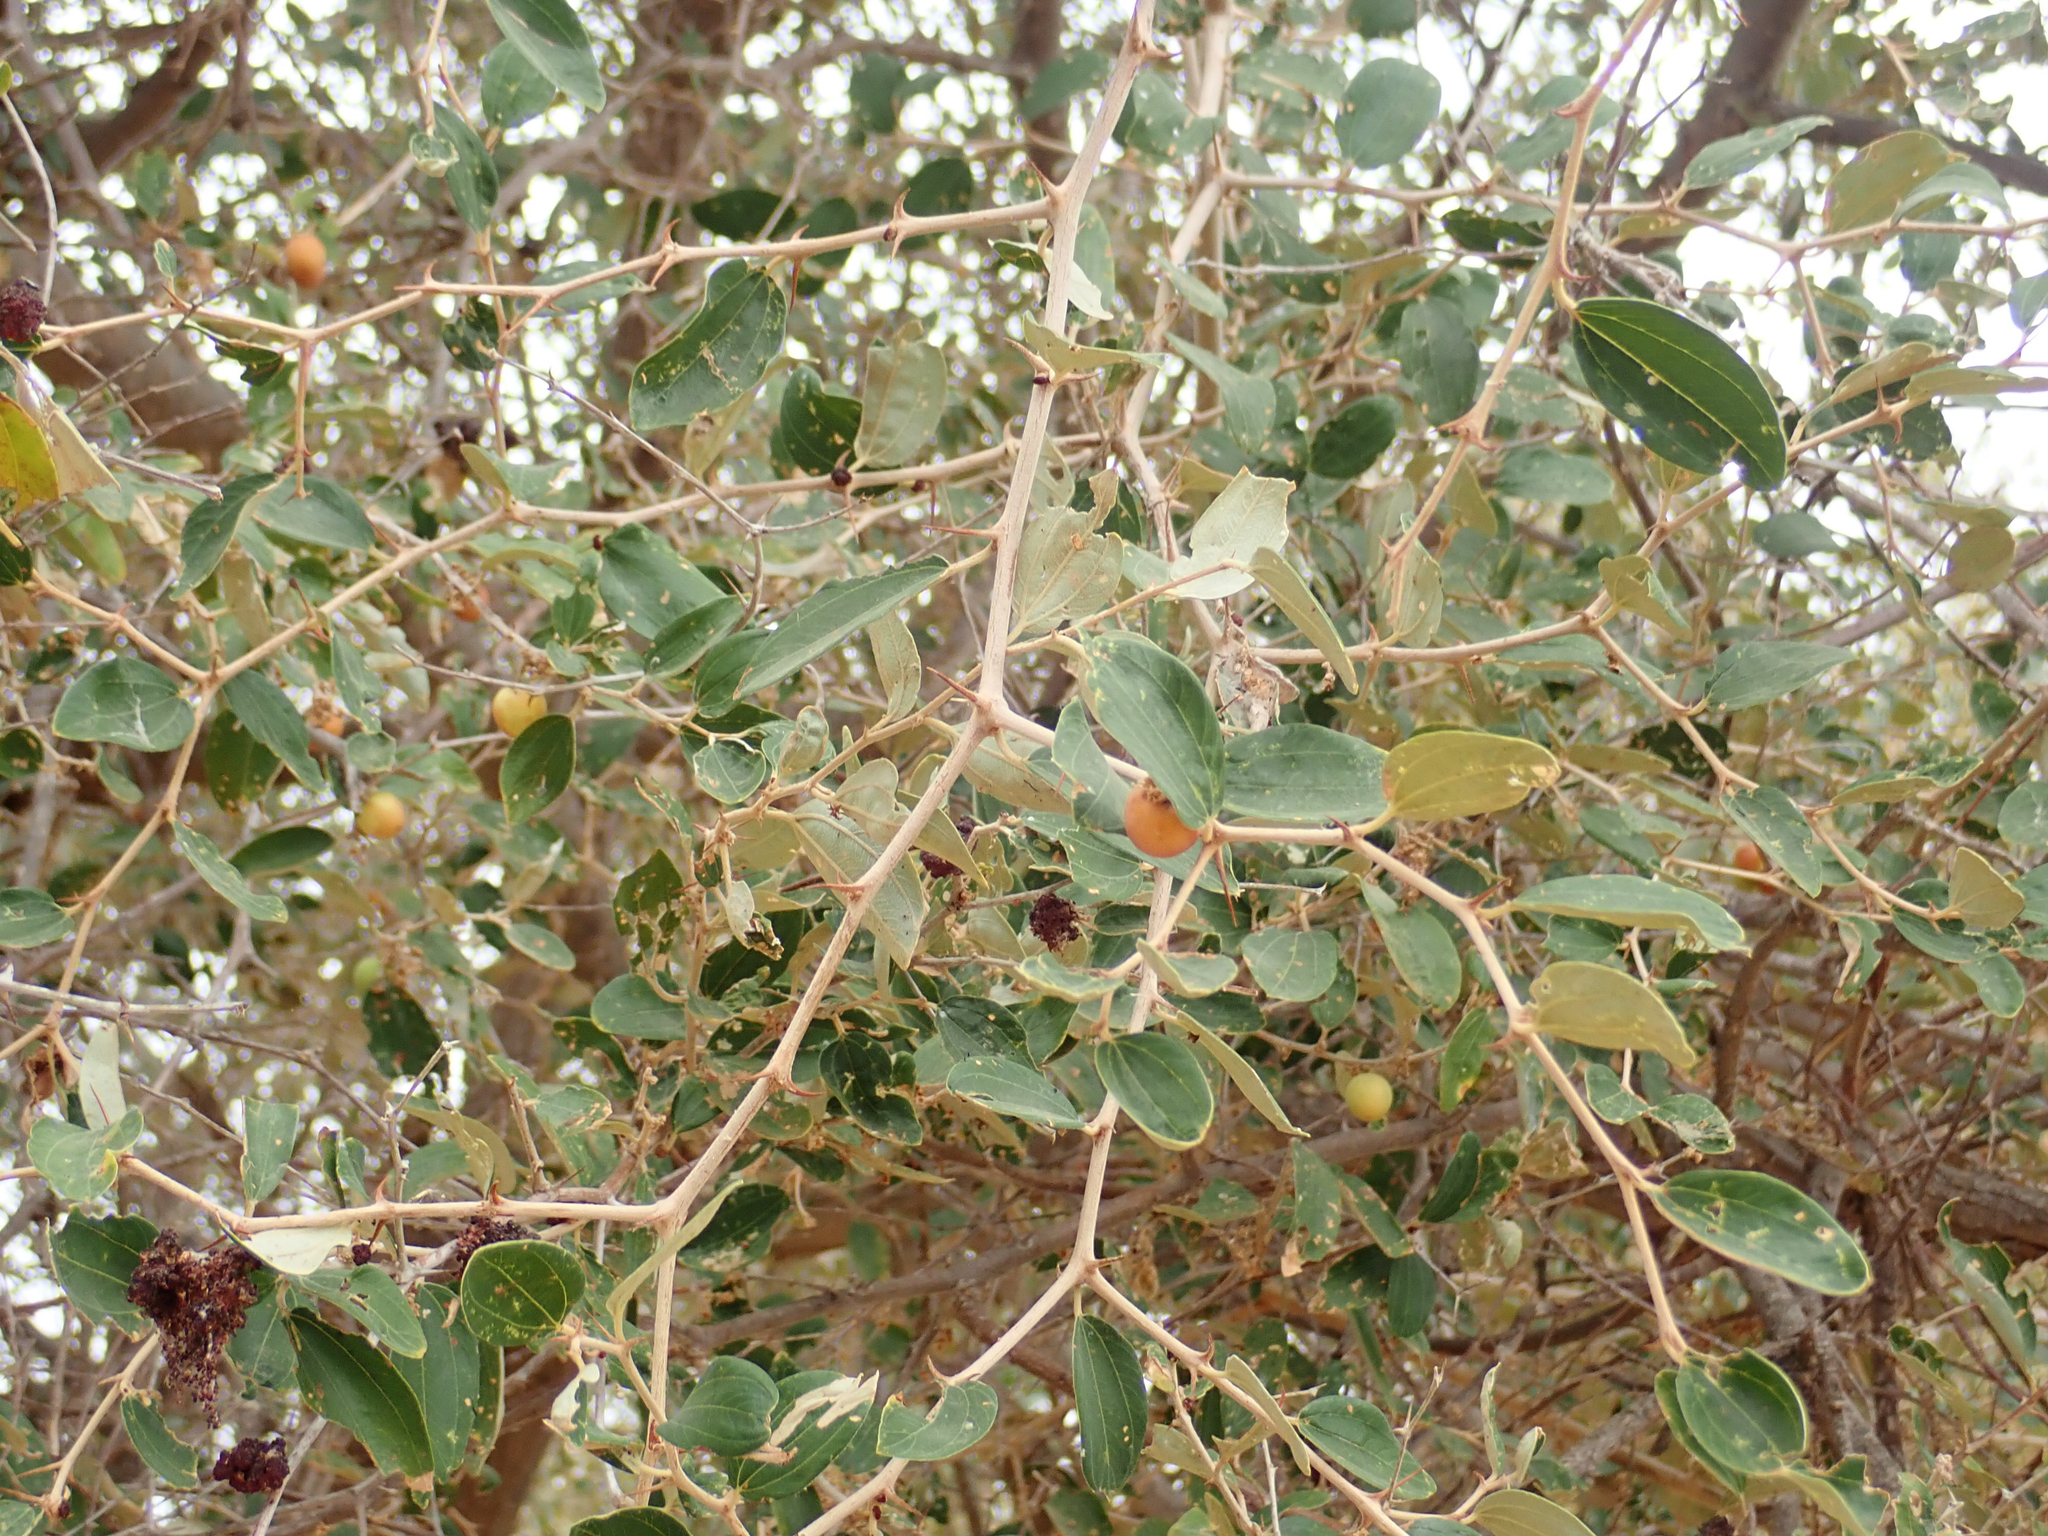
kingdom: Plantae
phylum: Tracheophyta
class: Magnoliopsida
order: Rosales
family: Rhamnaceae
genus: Ziziphus
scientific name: Ziziphus mauritiana
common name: Indian jujube
